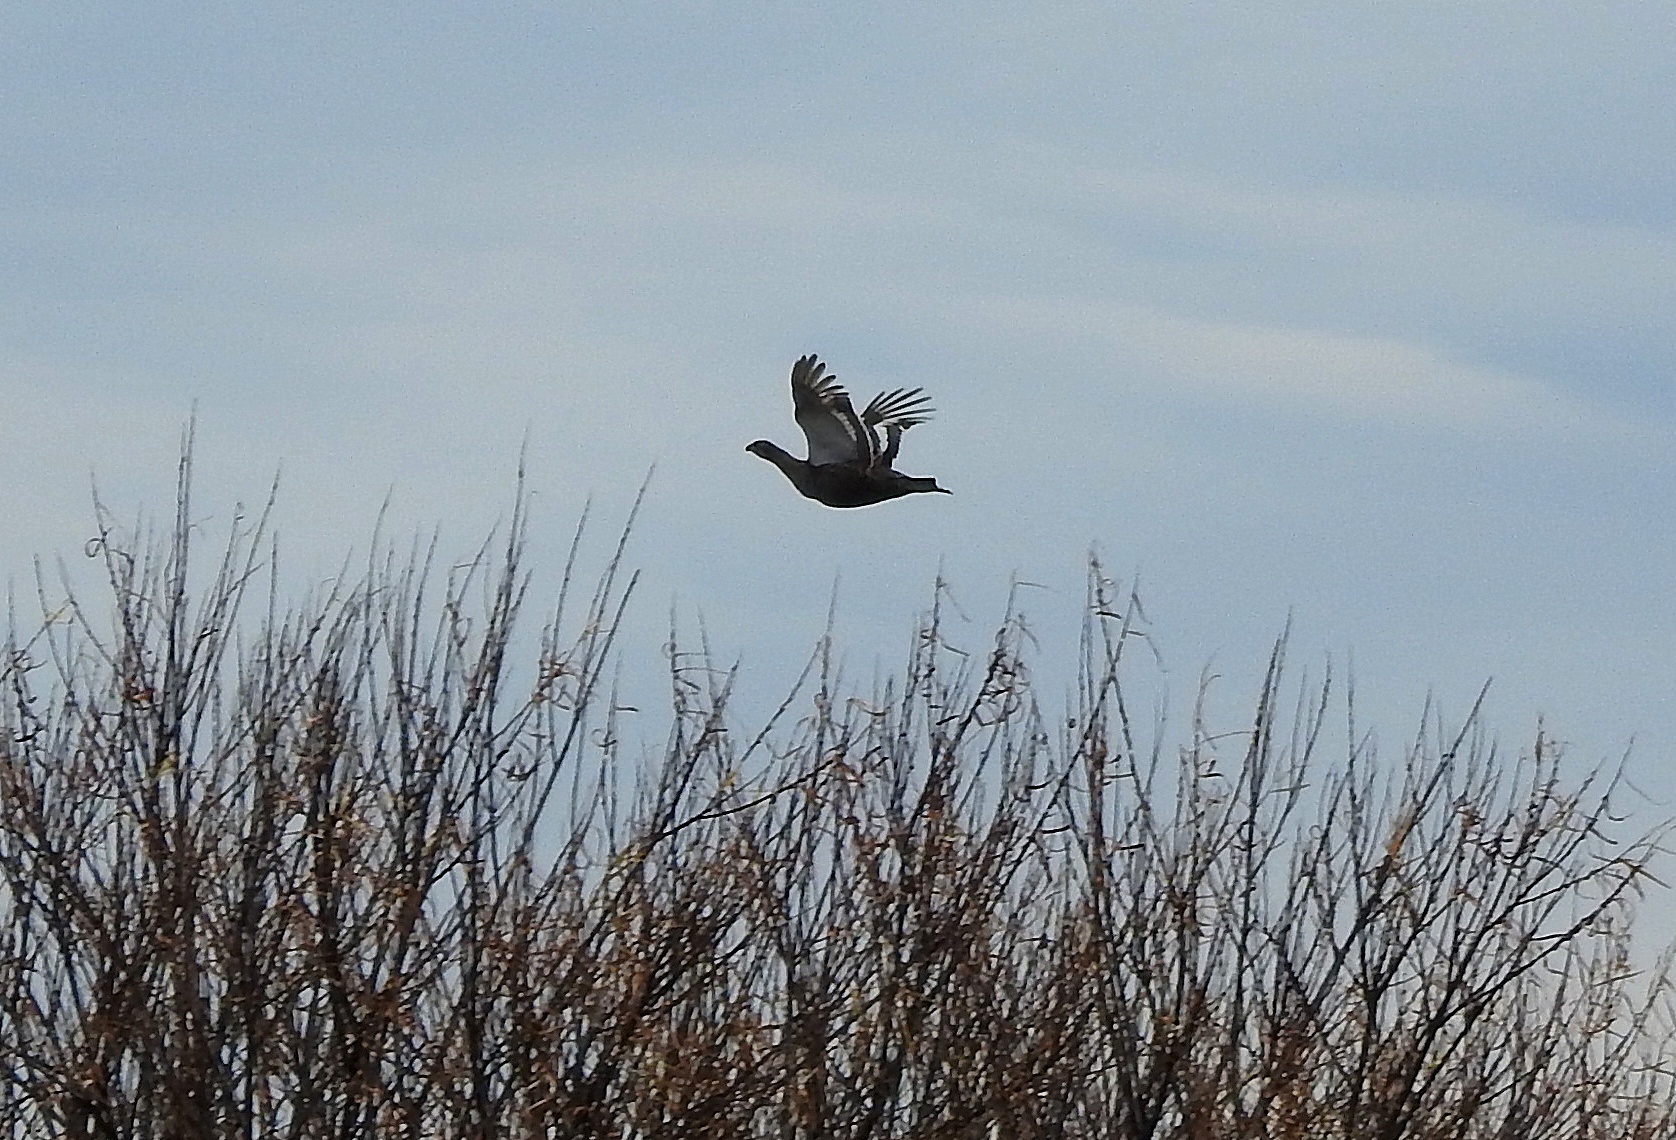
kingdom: Animalia
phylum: Chordata
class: Aves
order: Galliformes
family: Phasianidae
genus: Lyrurus
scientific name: Lyrurus tetrix
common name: Black grouse
